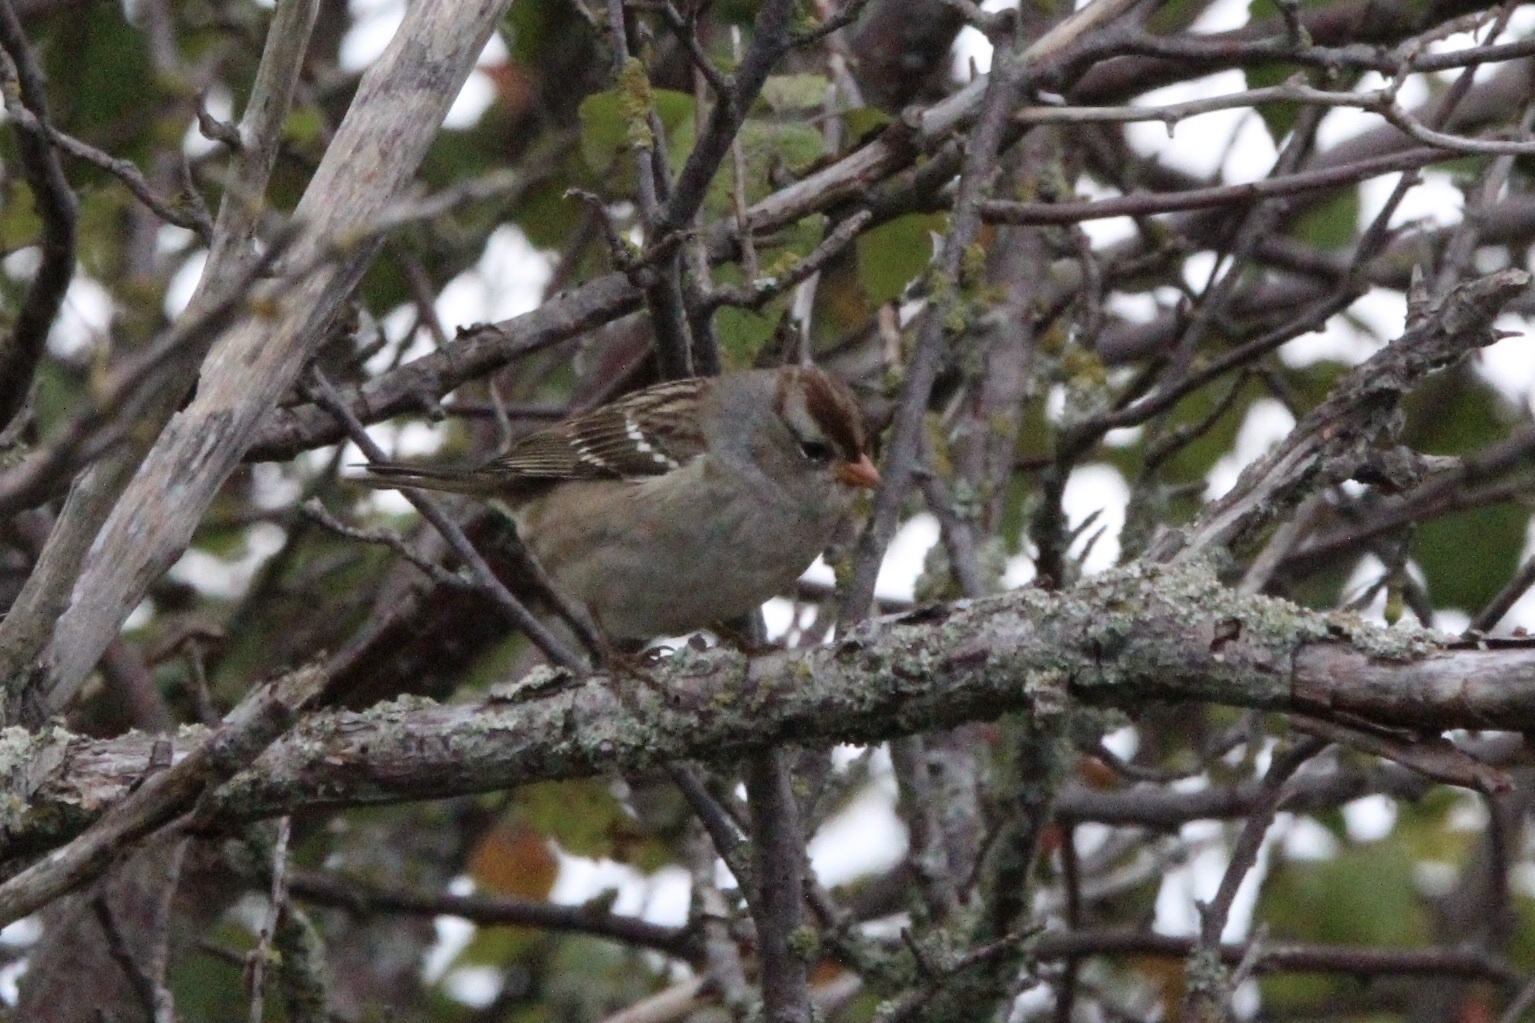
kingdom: Animalia
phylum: Chordata
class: Aves
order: Passeriformes
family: Passerellidae
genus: Zonotrichia
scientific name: Zonotrichia leucophrys
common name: White-crowned sparrow
